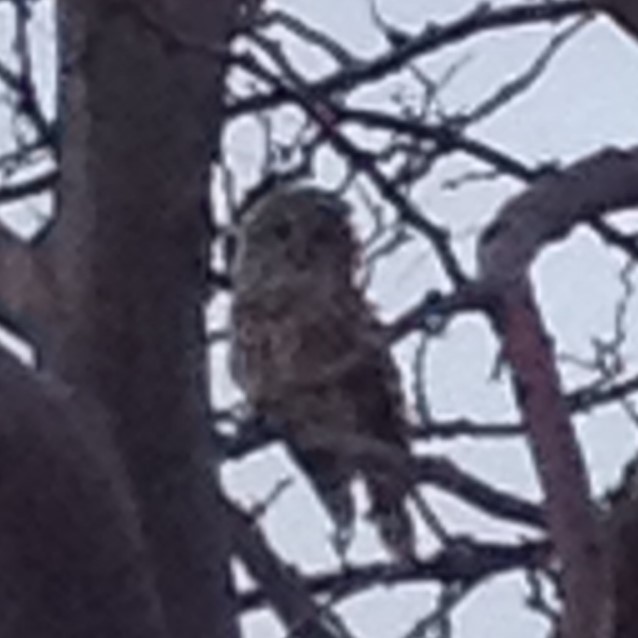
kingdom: Animalia
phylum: Chordata
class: Aves
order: Strigiformes
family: Strigidae
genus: Strix
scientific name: Strix varia
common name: Barred owl
